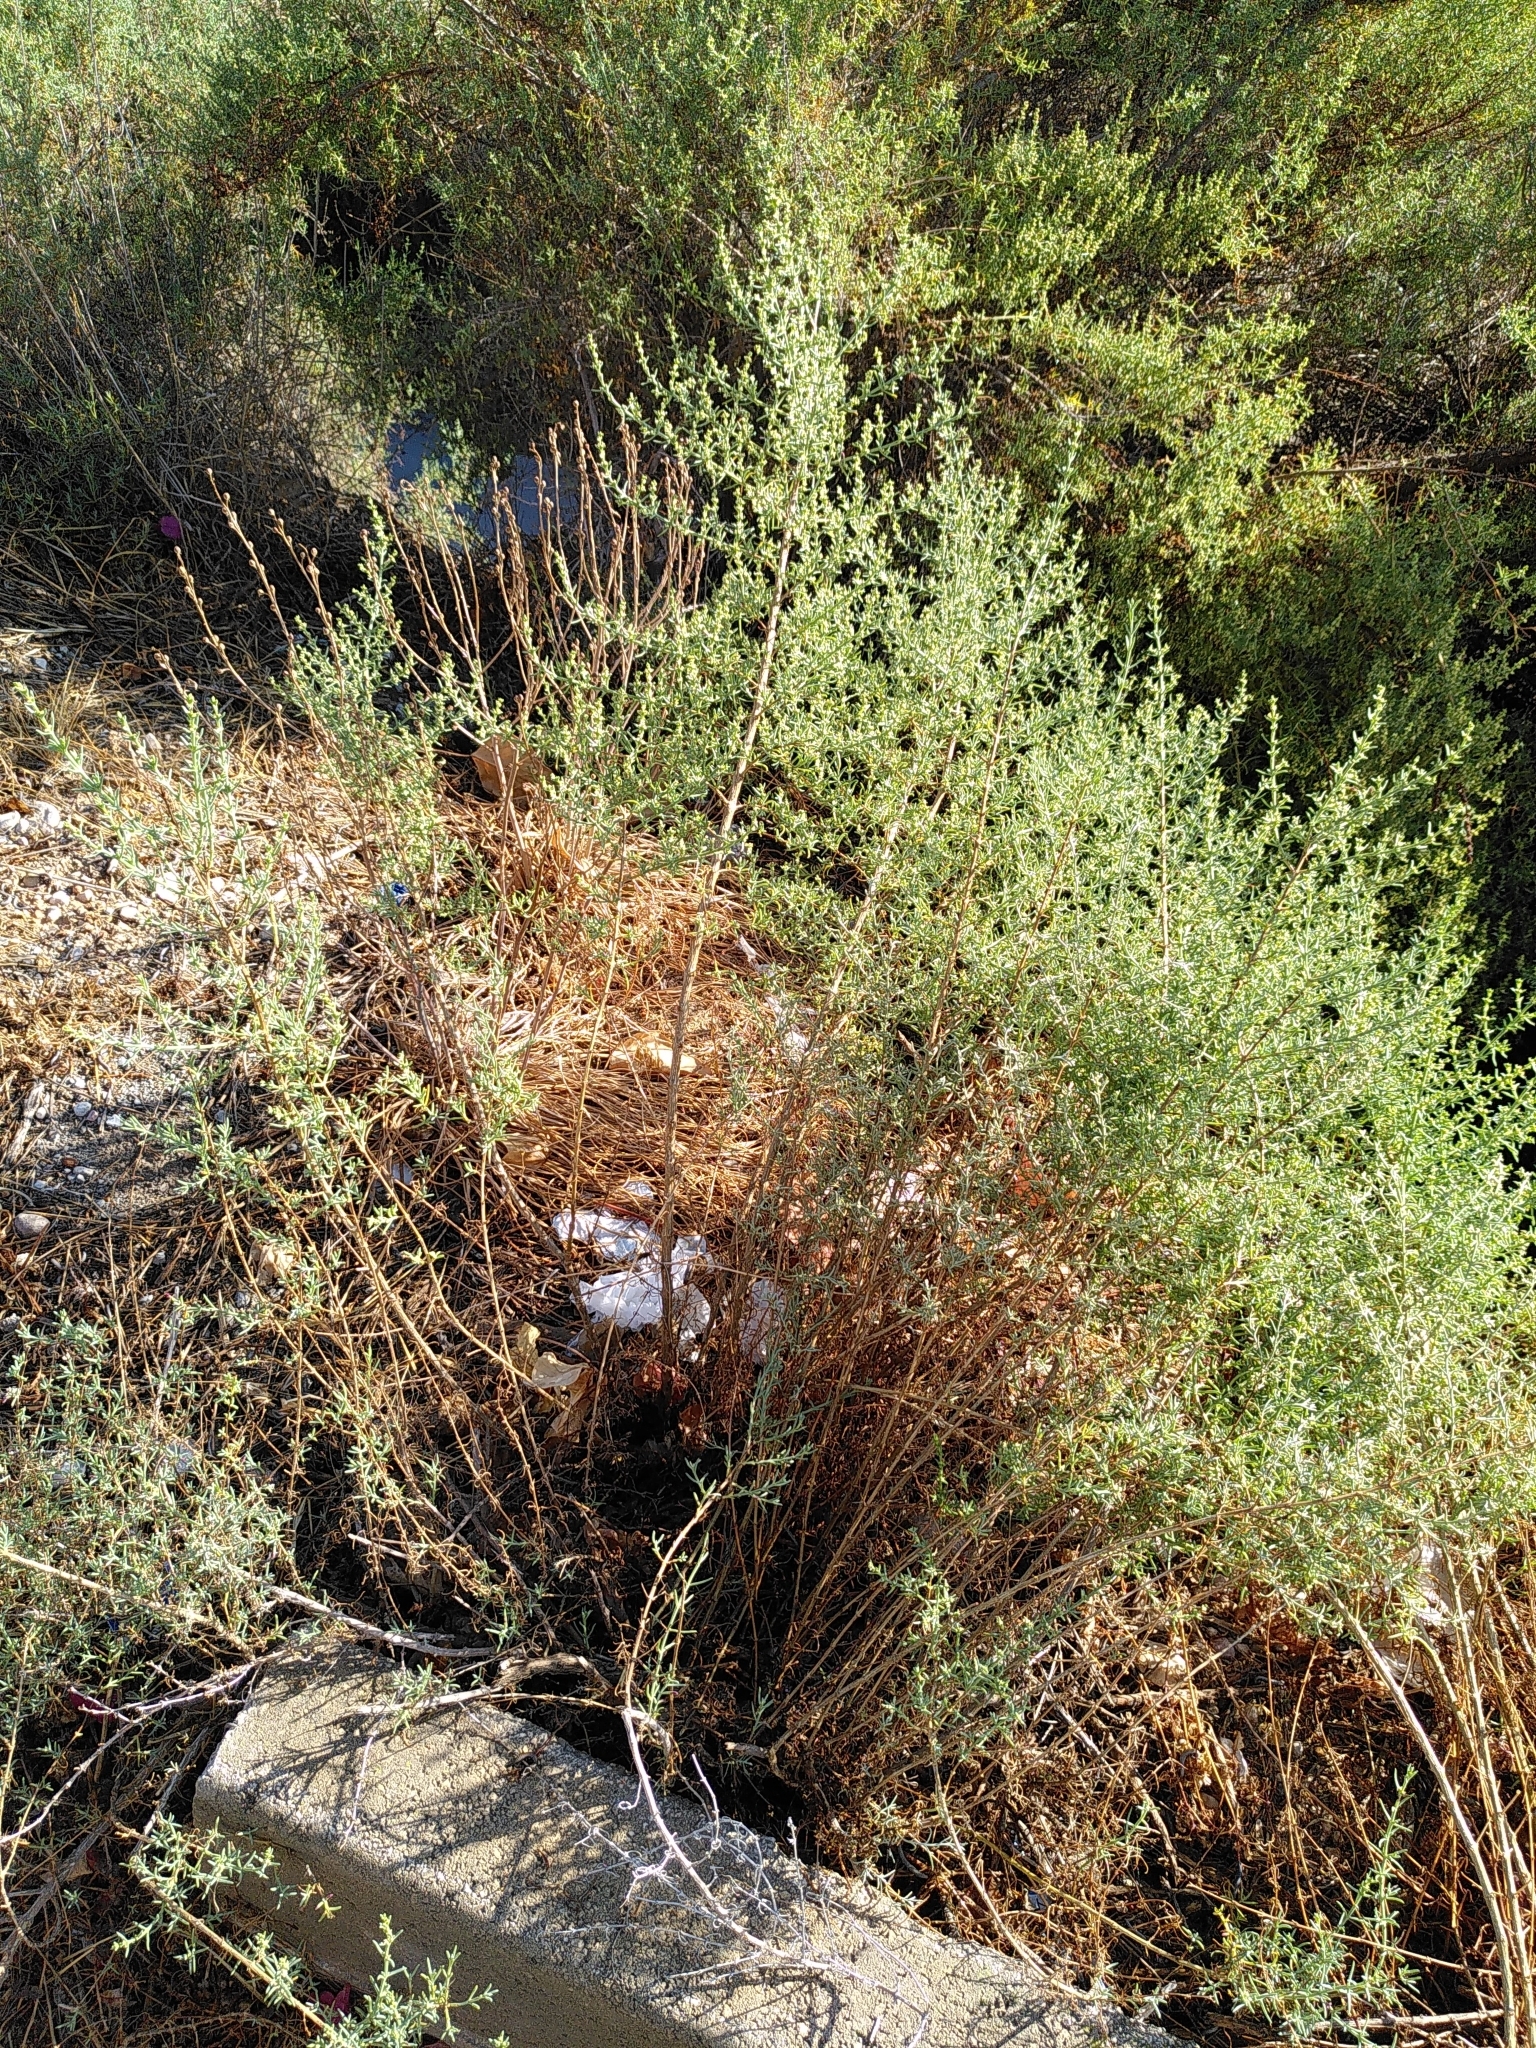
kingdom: Plantae
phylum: Tracheophyta
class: Magnoliopsida
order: Caryophyllales
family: Amaranthaceae
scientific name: Amaranthaceae
